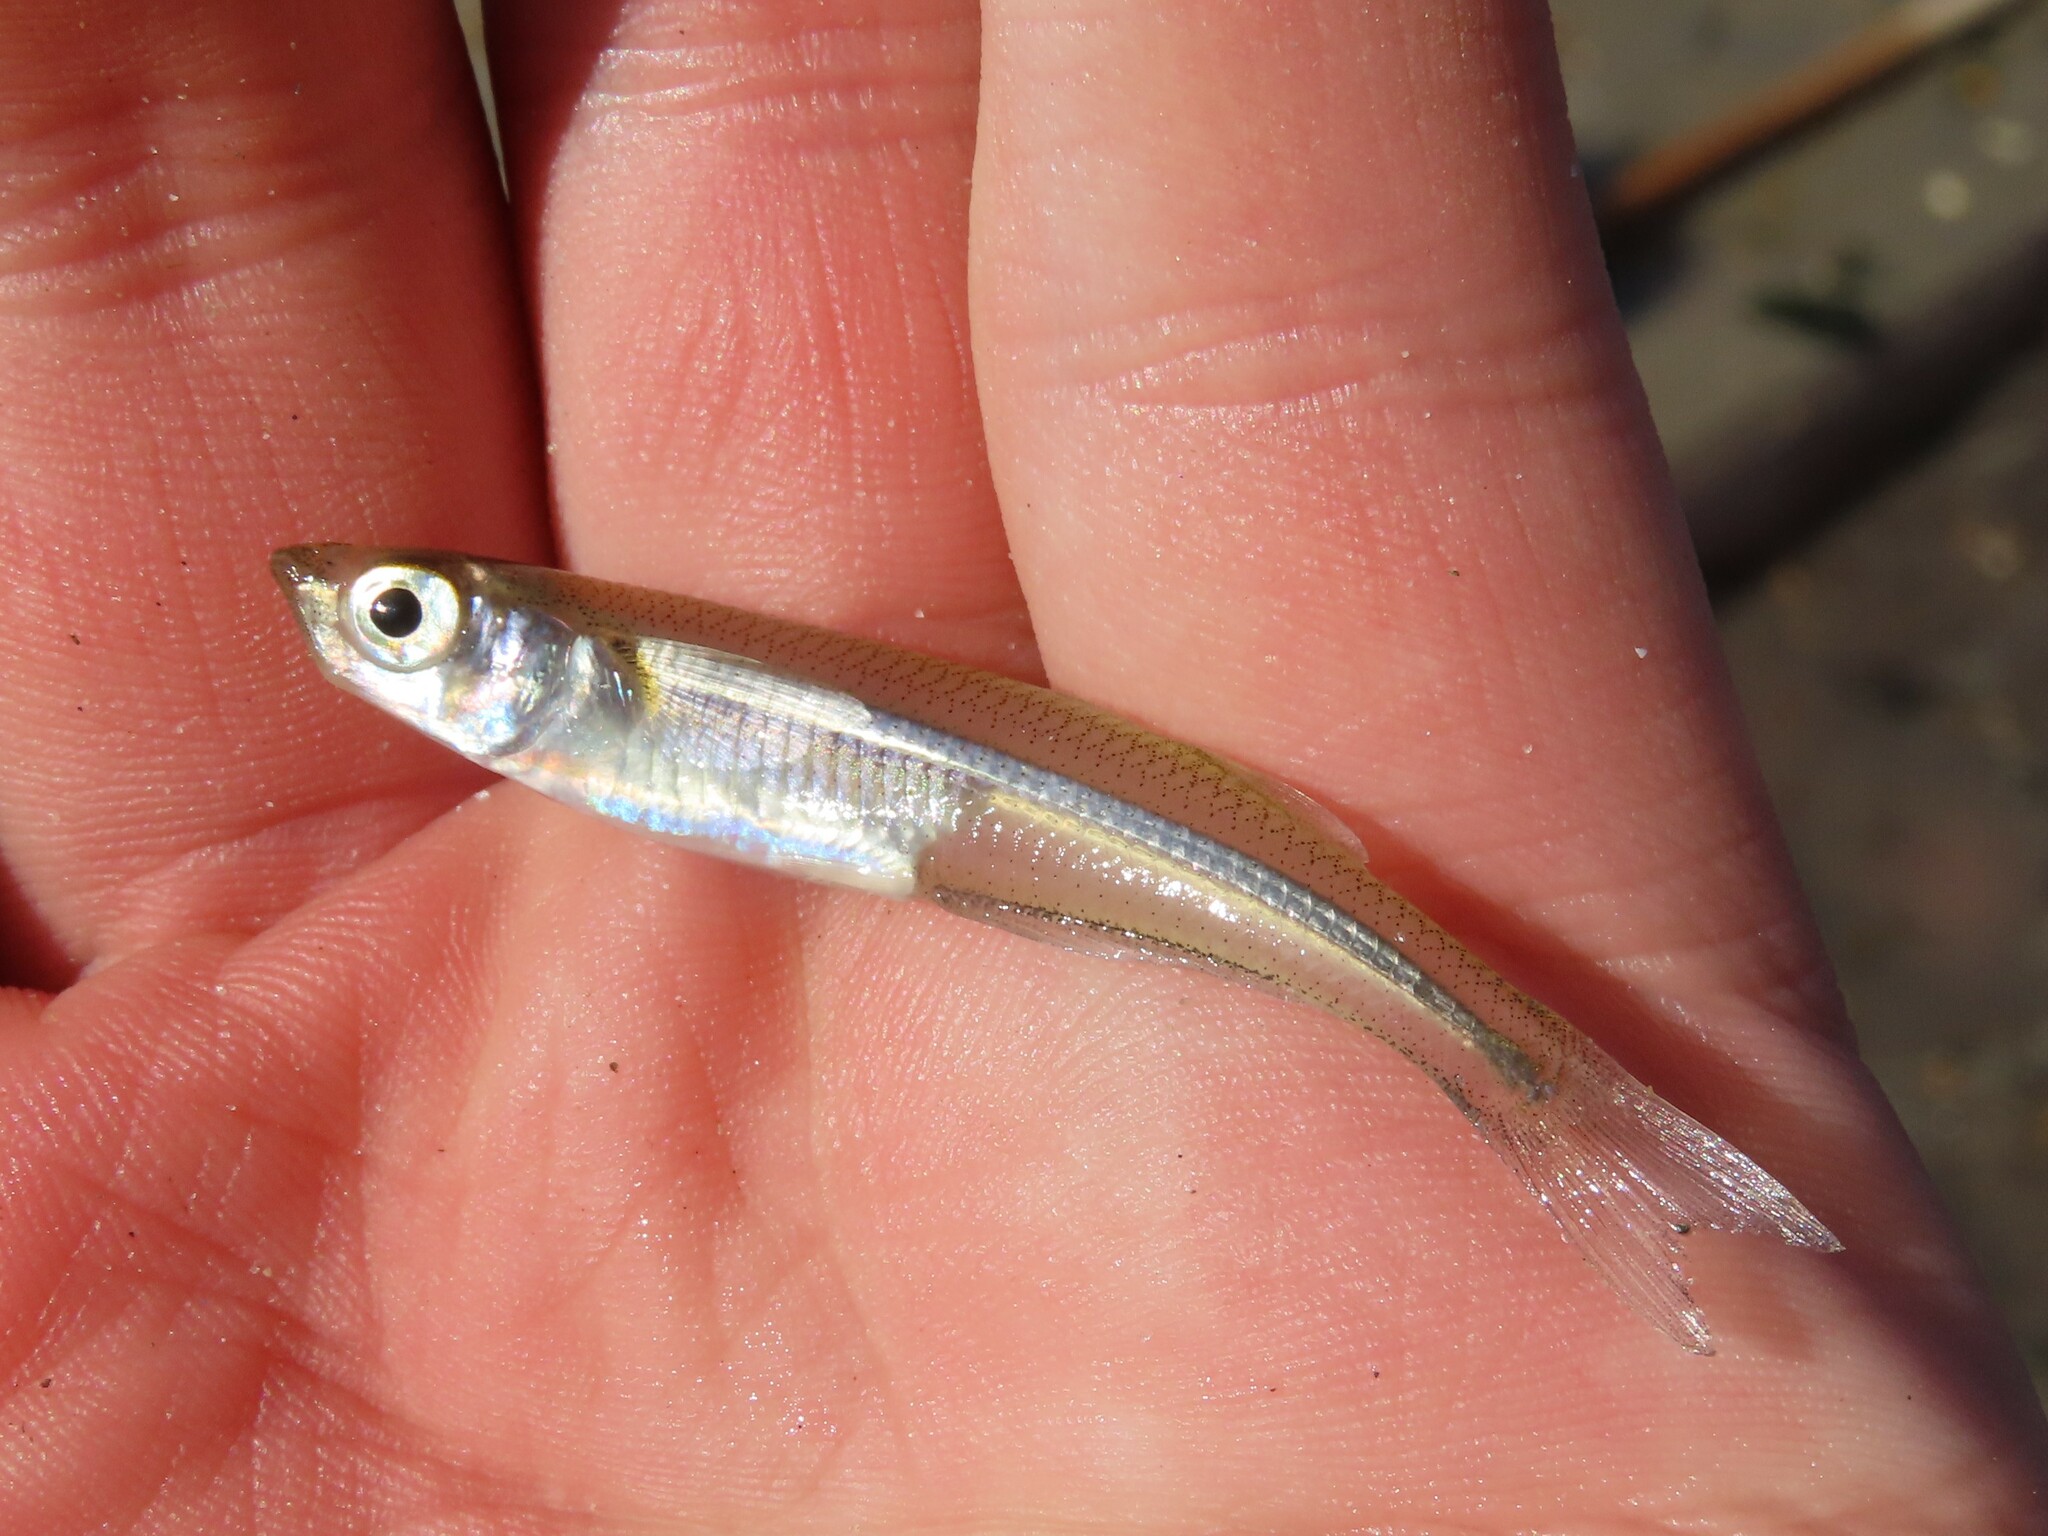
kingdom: Animalia
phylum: Chordata
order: Atheriniformes
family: Atherinopsidae
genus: Menidia
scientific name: Menidia menidia
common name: Atlantic silverside
